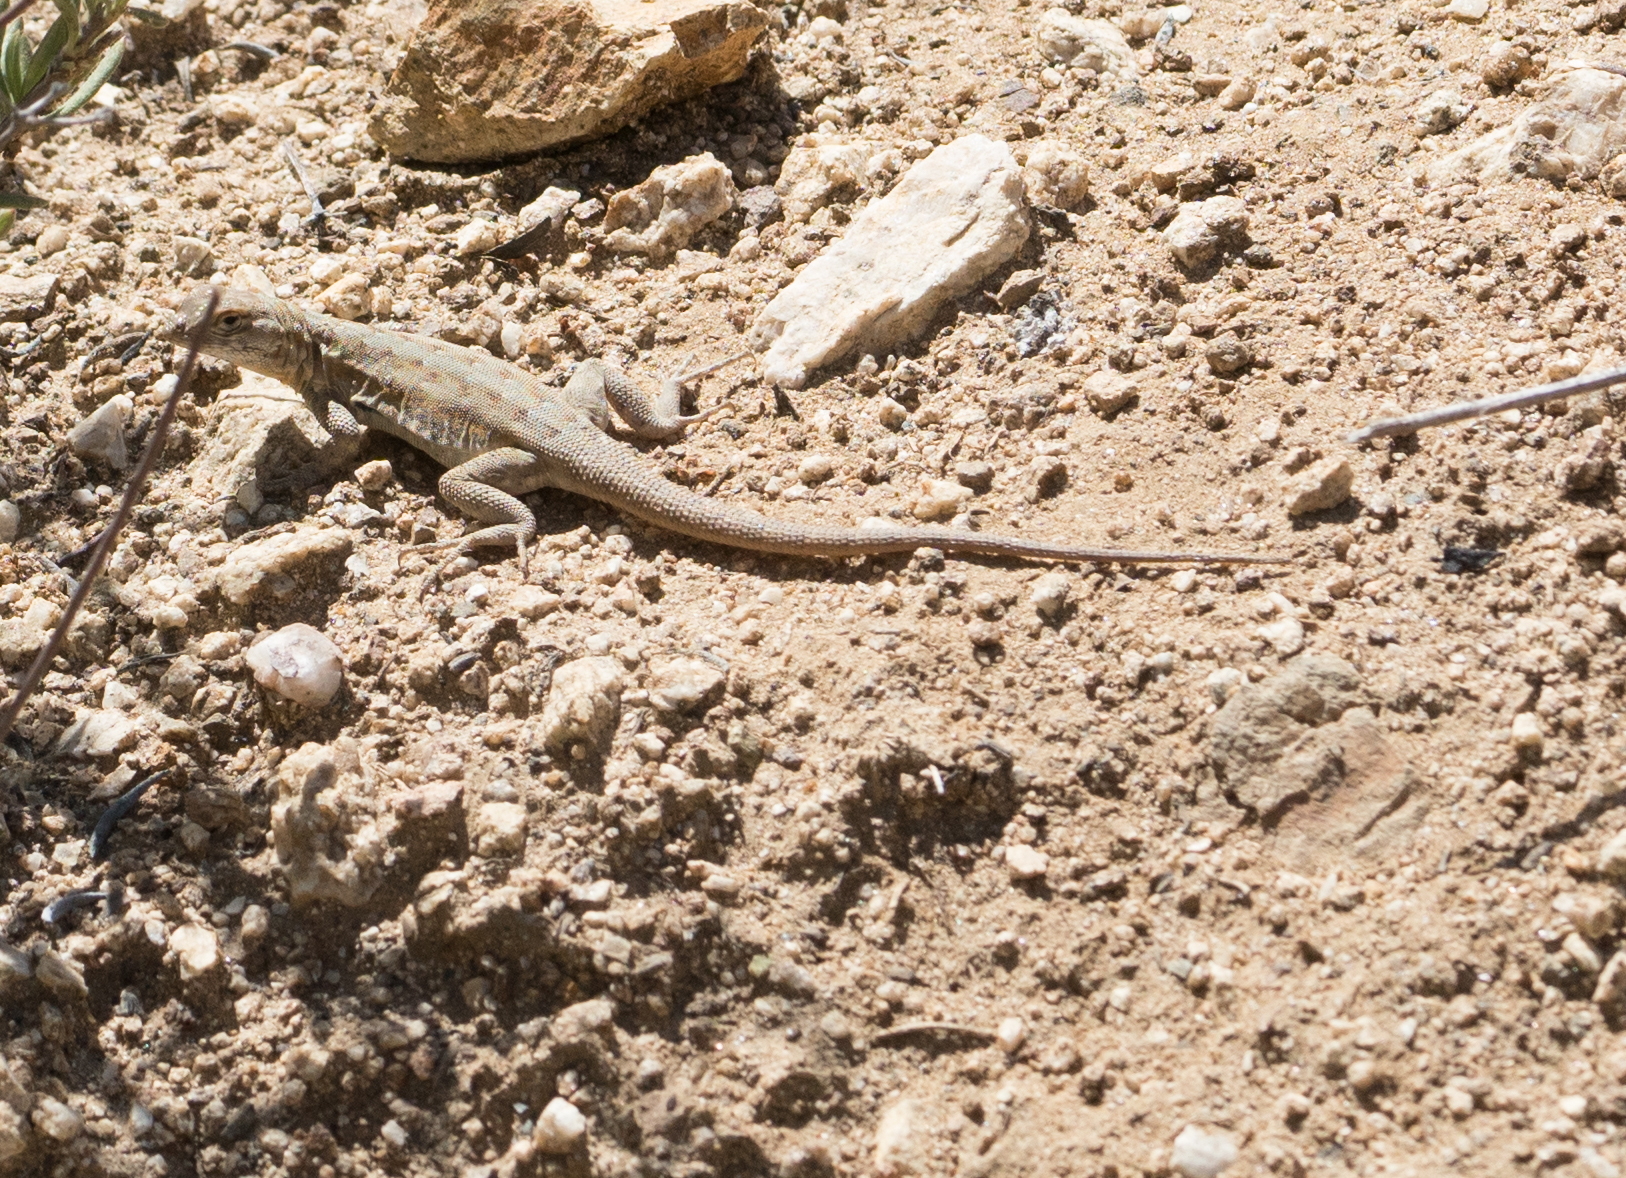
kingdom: Animalia
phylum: Chordata
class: Squamata
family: Phrynosomatidae
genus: Uta
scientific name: Uta stansburiana
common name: Side-blotched lizard
